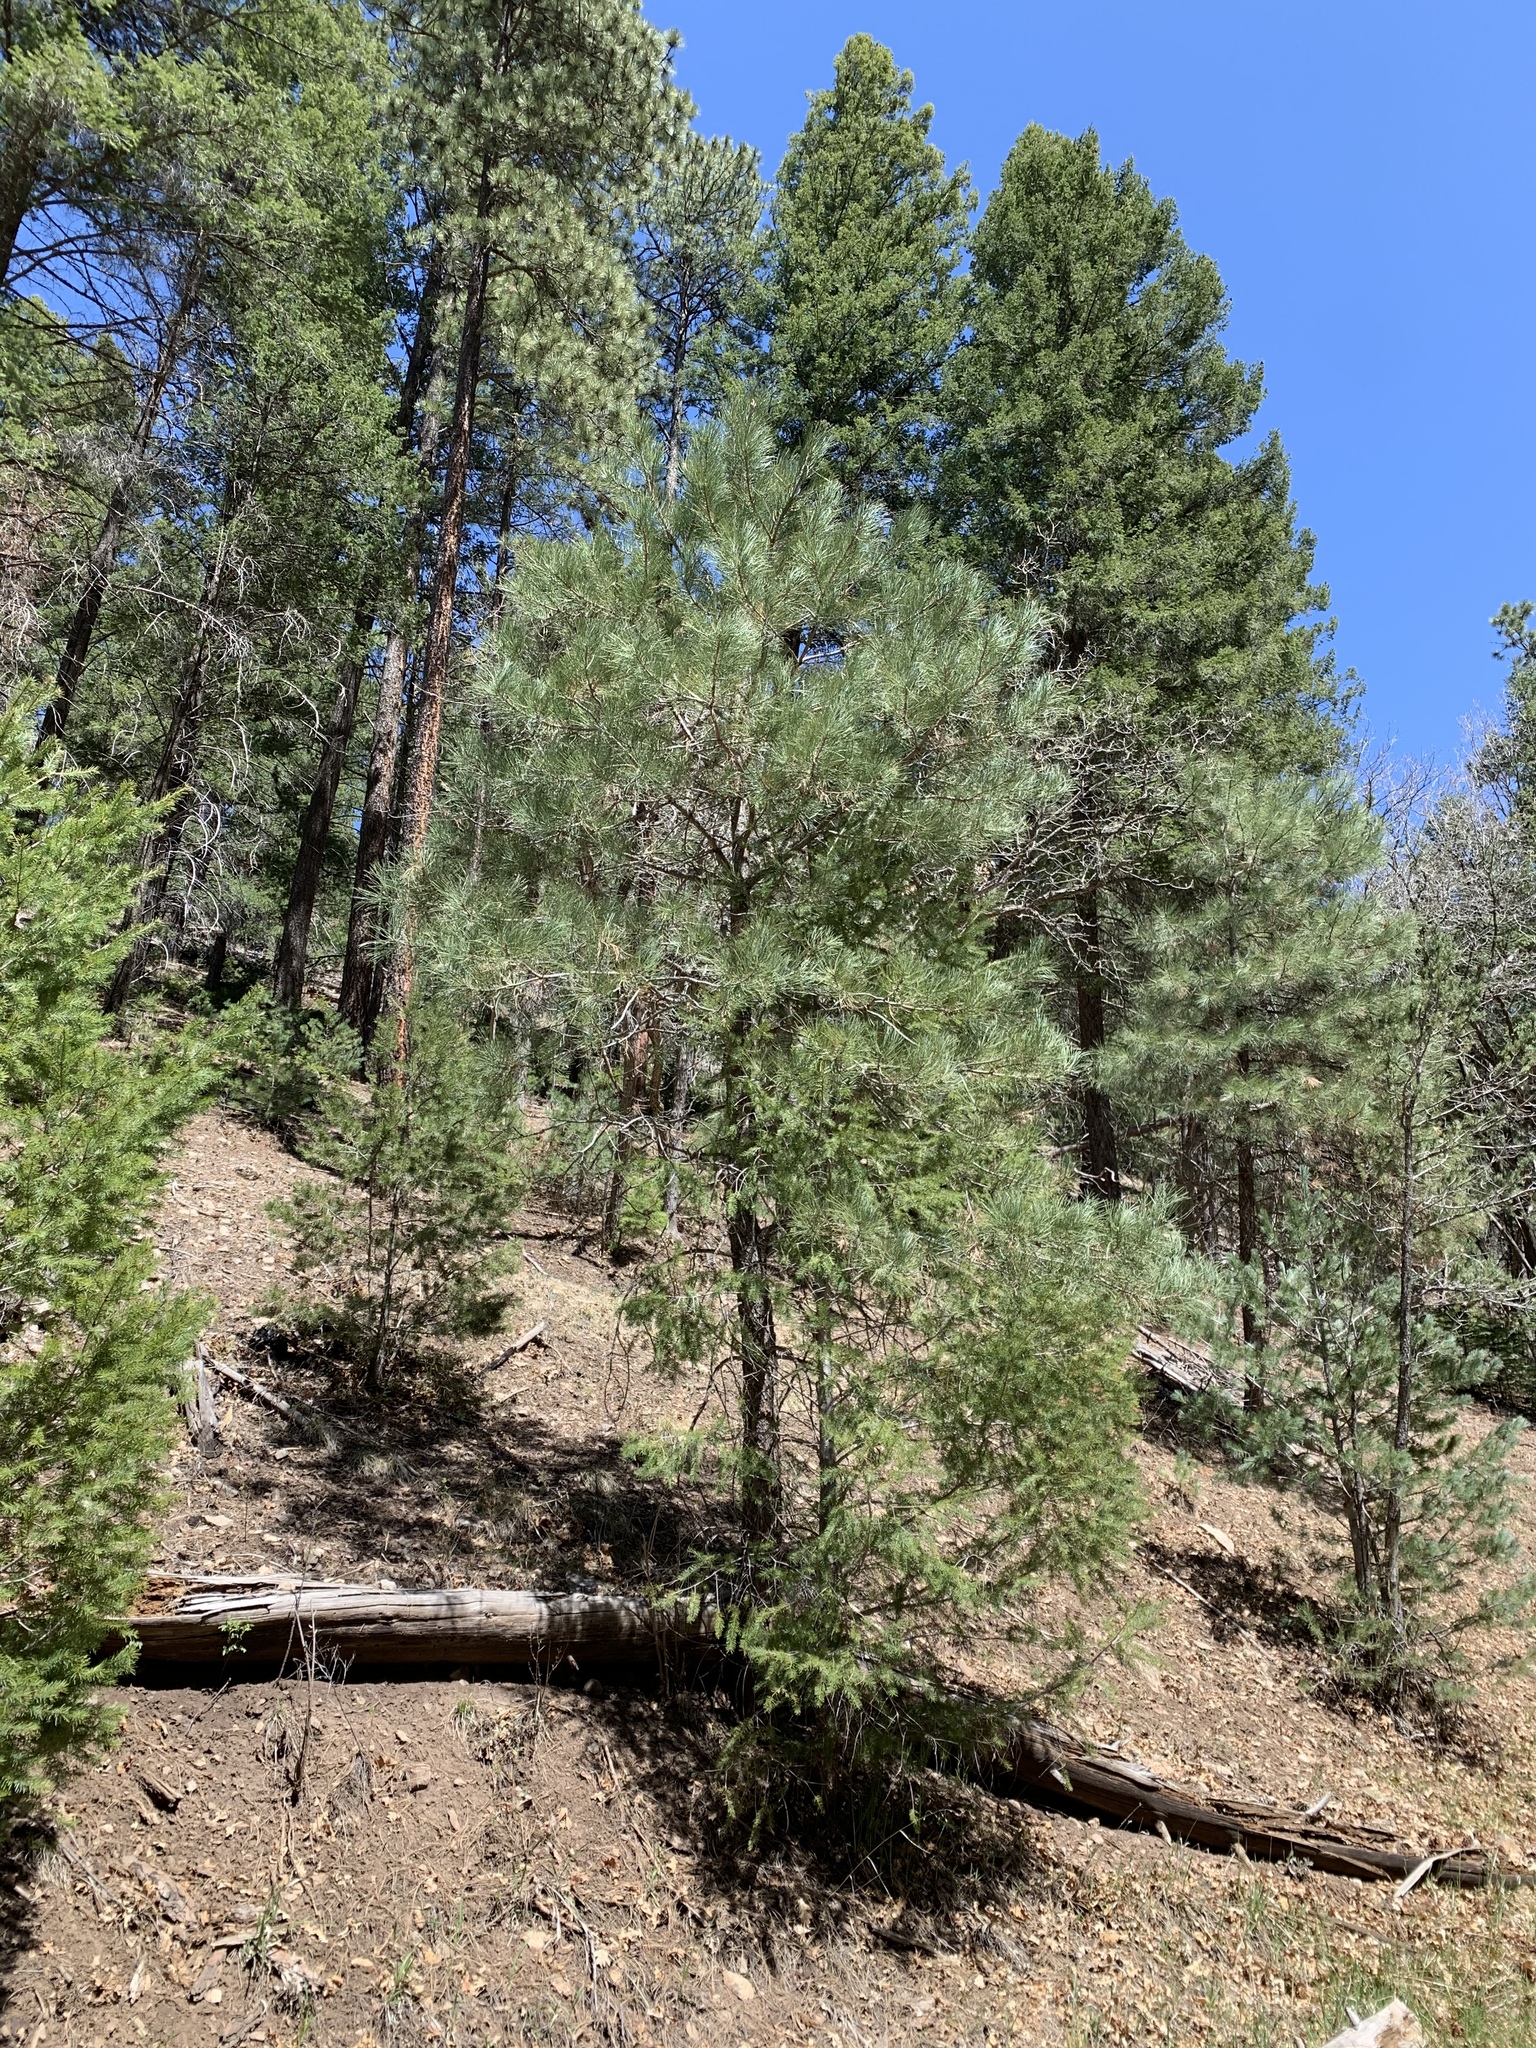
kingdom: Plantae
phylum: Tracheophyta
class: Pinopsida
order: Pinales
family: Pinaceae
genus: Pinus
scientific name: Pinus strobiformis
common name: Southwestern white pine
